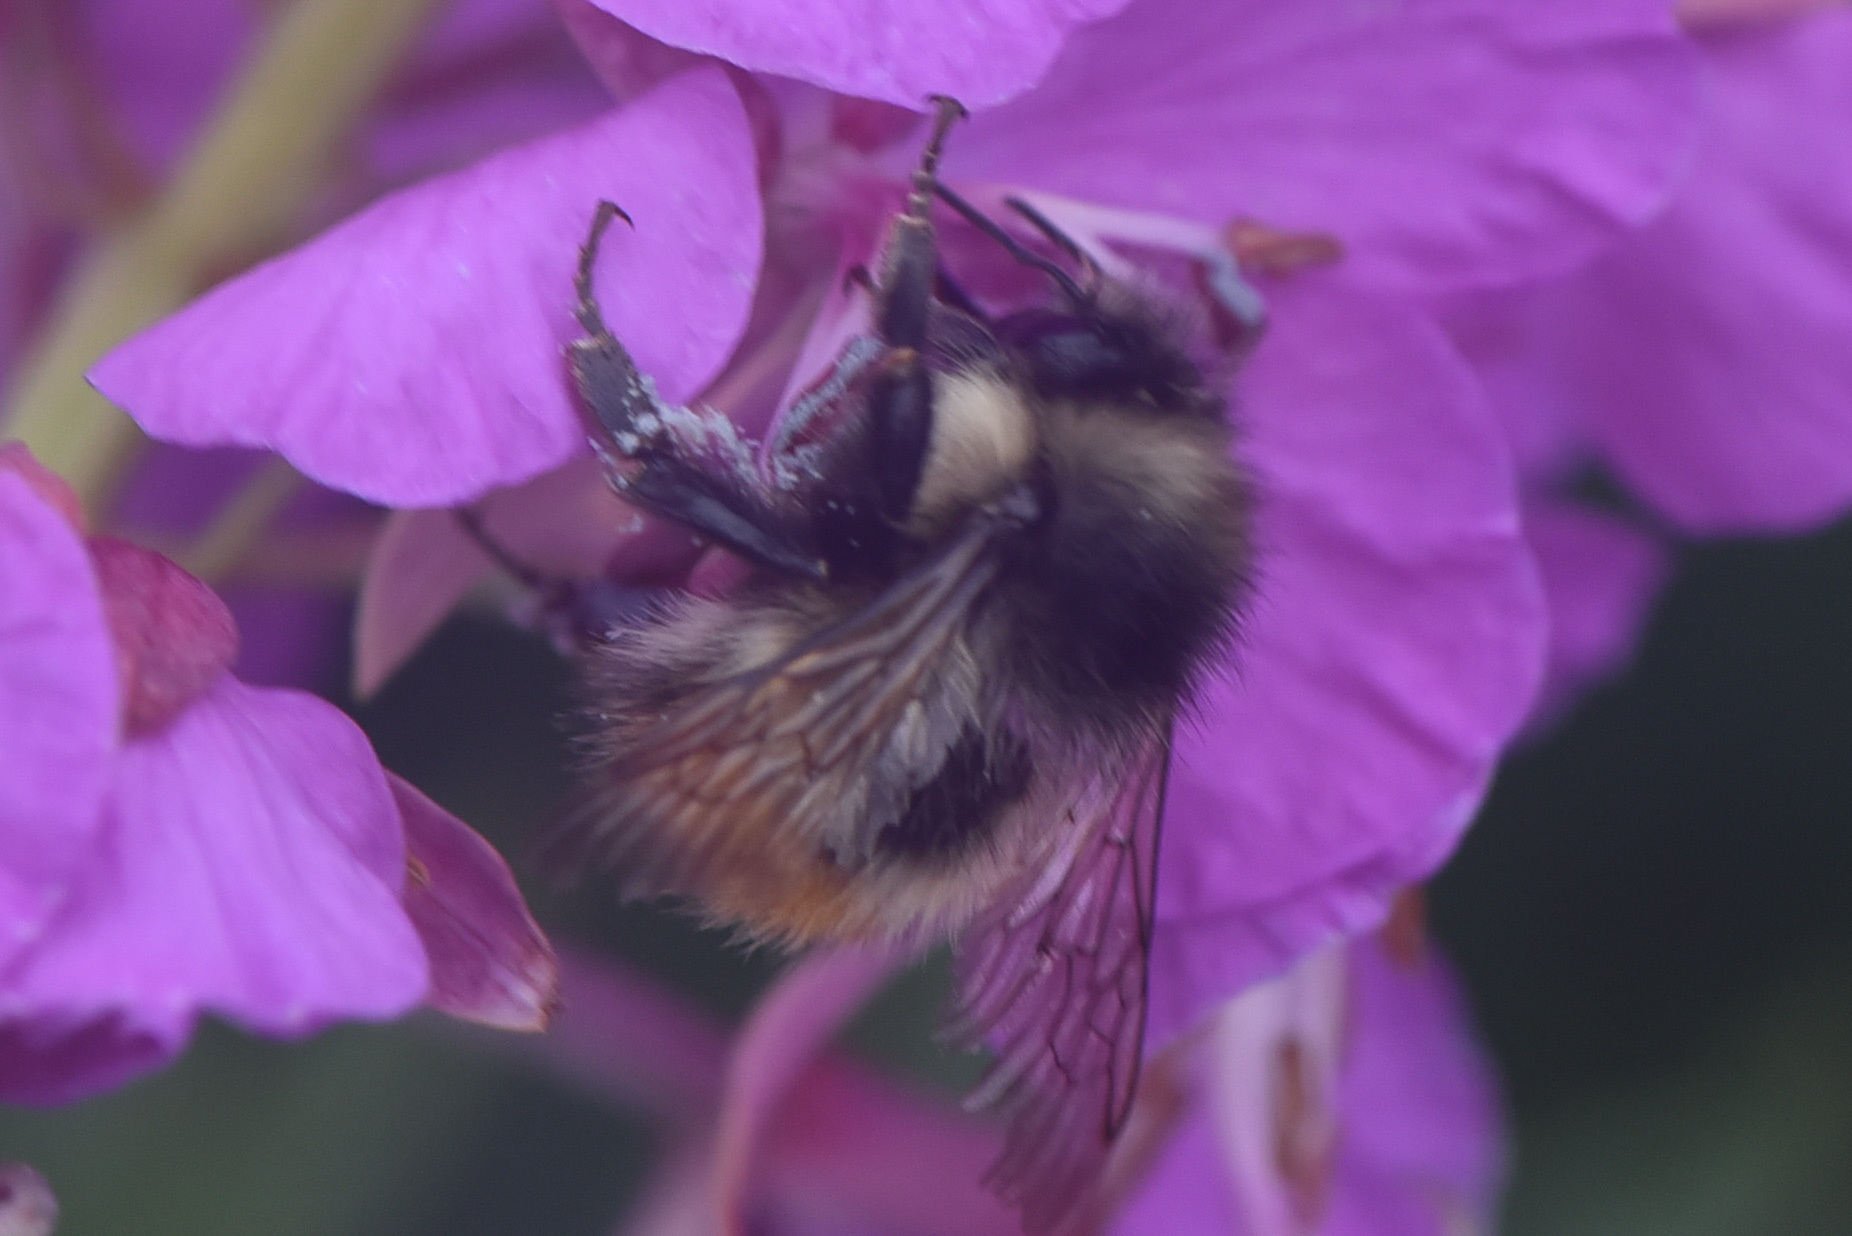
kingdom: Animalia
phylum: Arthropoda
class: Insecta
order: Hymenoptera
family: Apidae
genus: Bombus
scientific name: Bombus flavifrons
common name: Yellow head bumble bee
